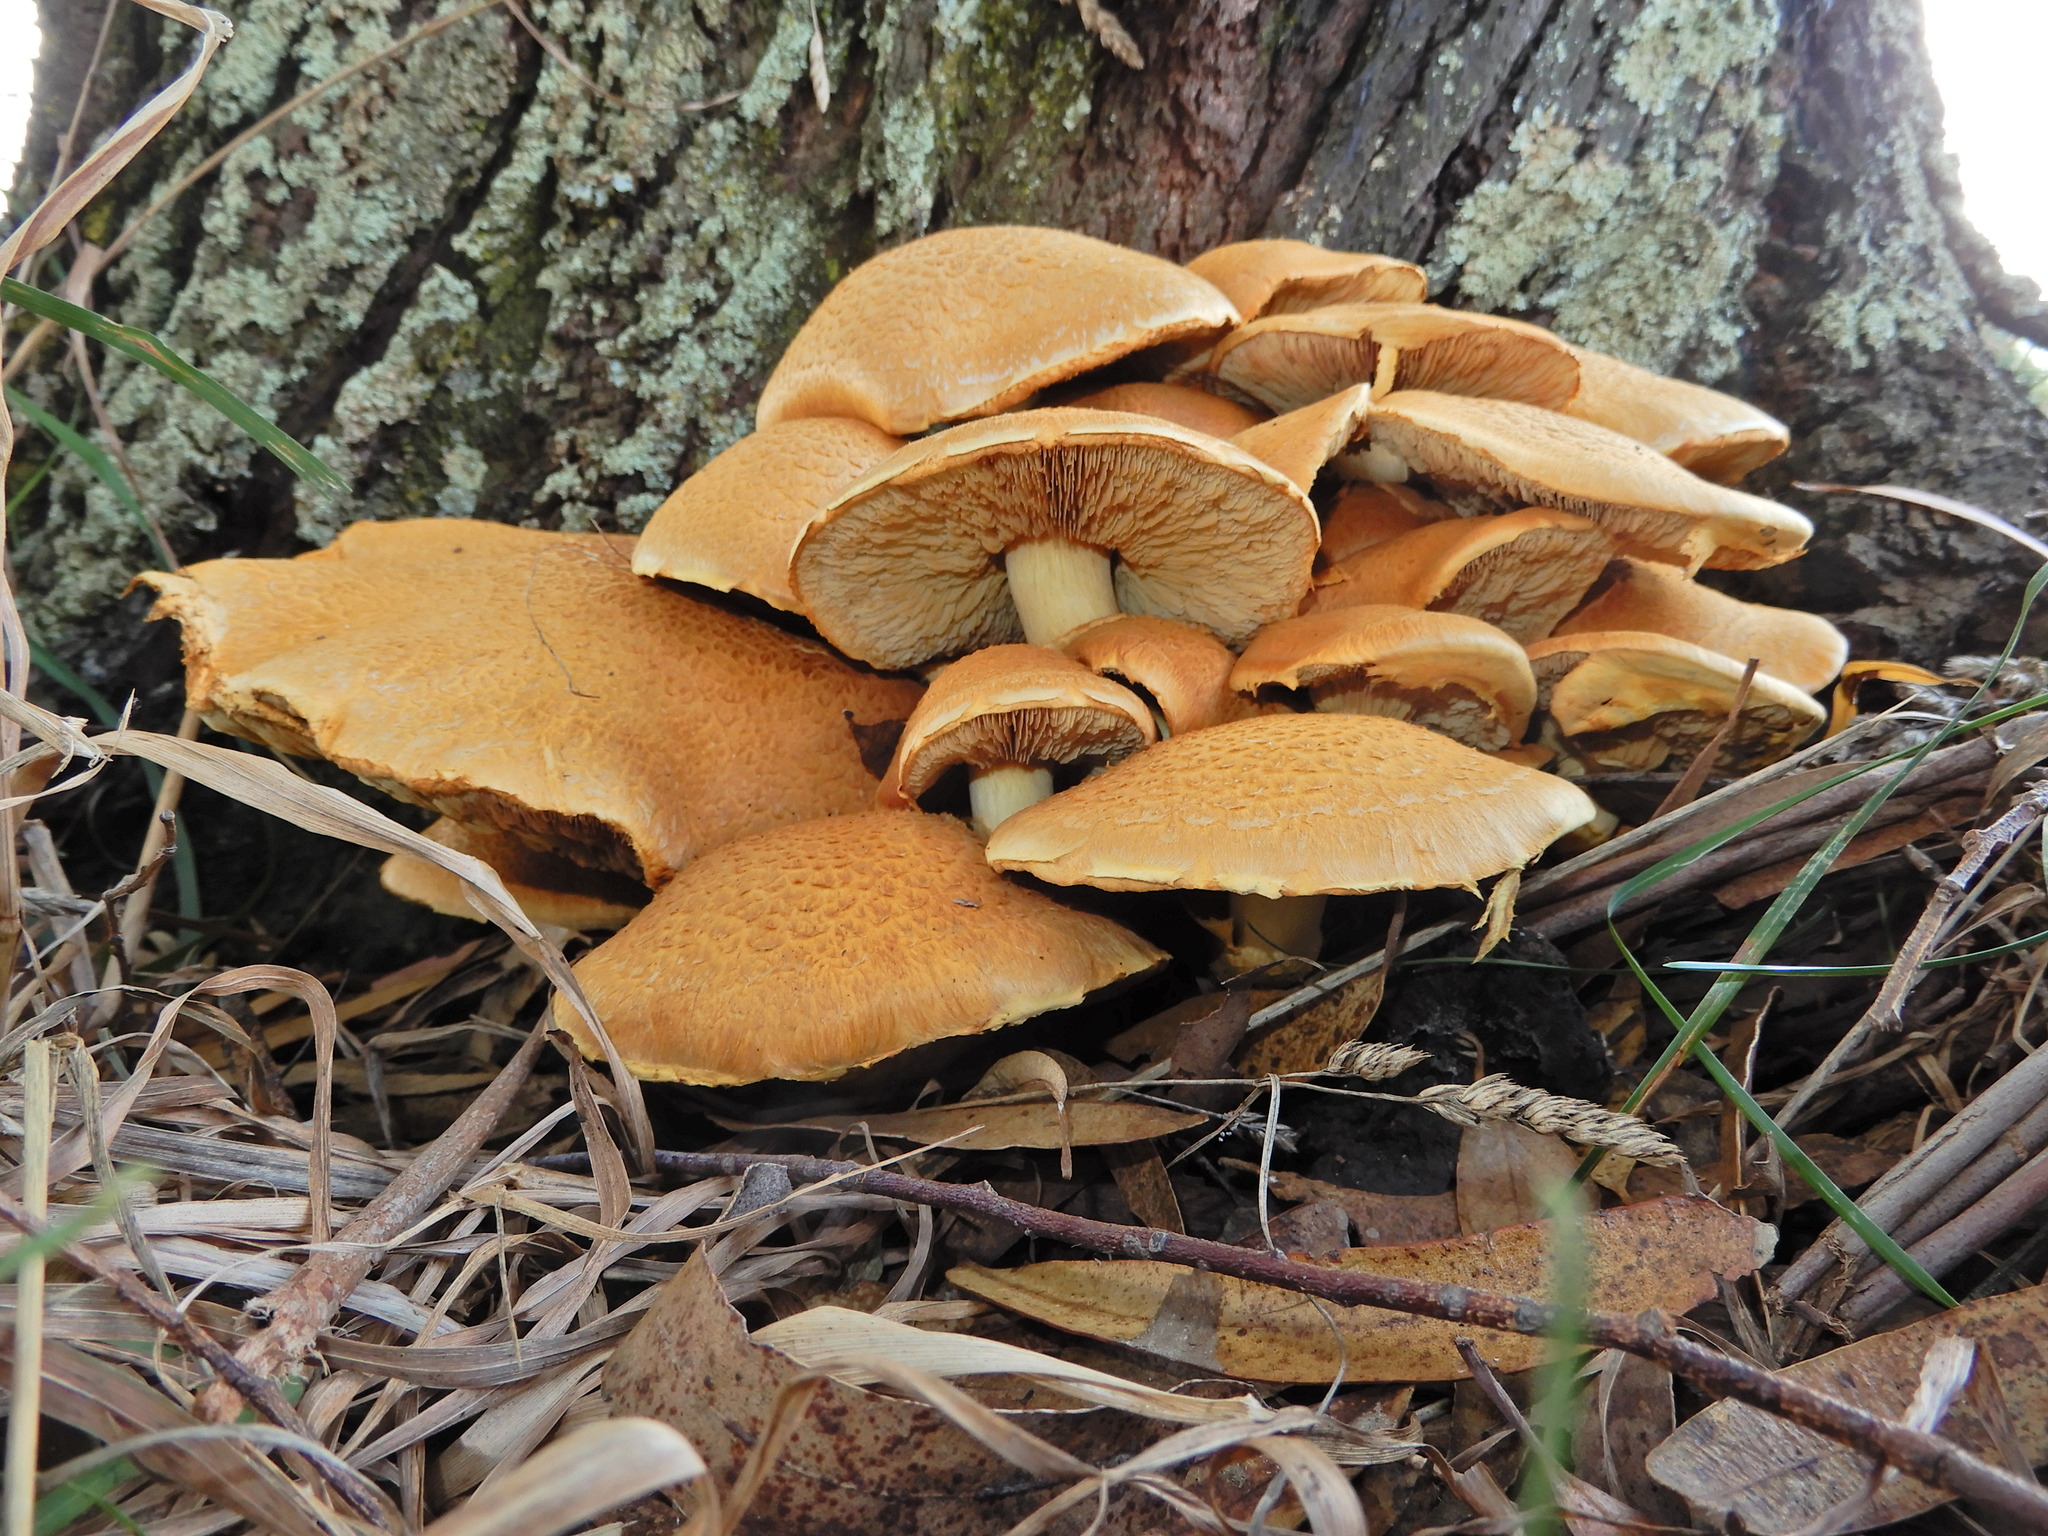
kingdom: Fungi
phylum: Basidiomycota
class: Agaricomycetes
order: Agaricales
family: Hymenogastraceae
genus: Gymnopilus
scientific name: Gymnopilus junonius
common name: Spectacular rustgill
